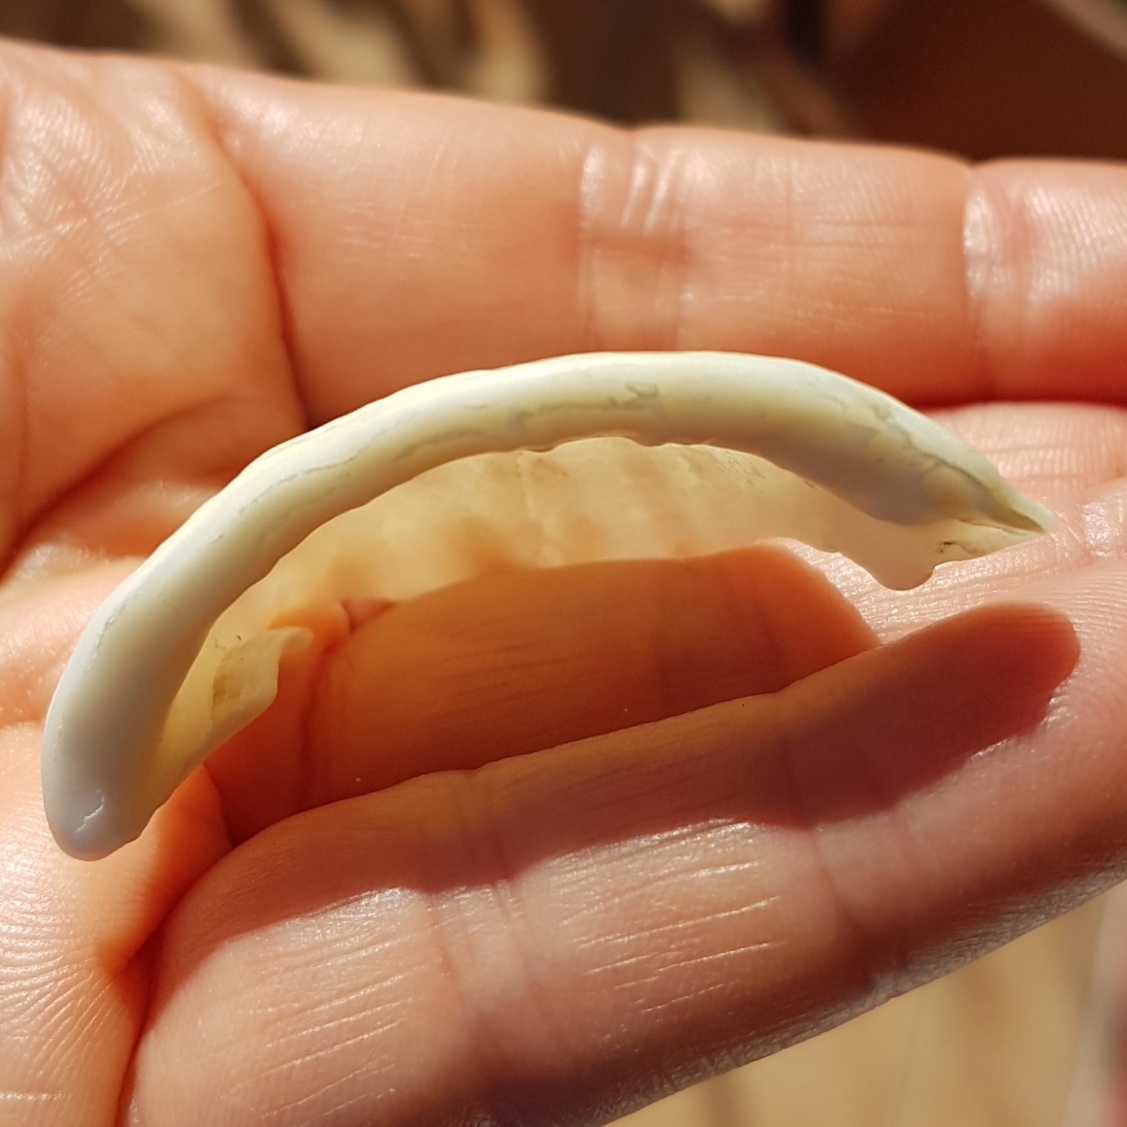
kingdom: Animalia
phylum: Mollusca
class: Gastropoda
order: Littorinimorpha
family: Cassidae
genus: Galeodea
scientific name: Galeodea echinophora
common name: Mediterranean spiny bonnet
